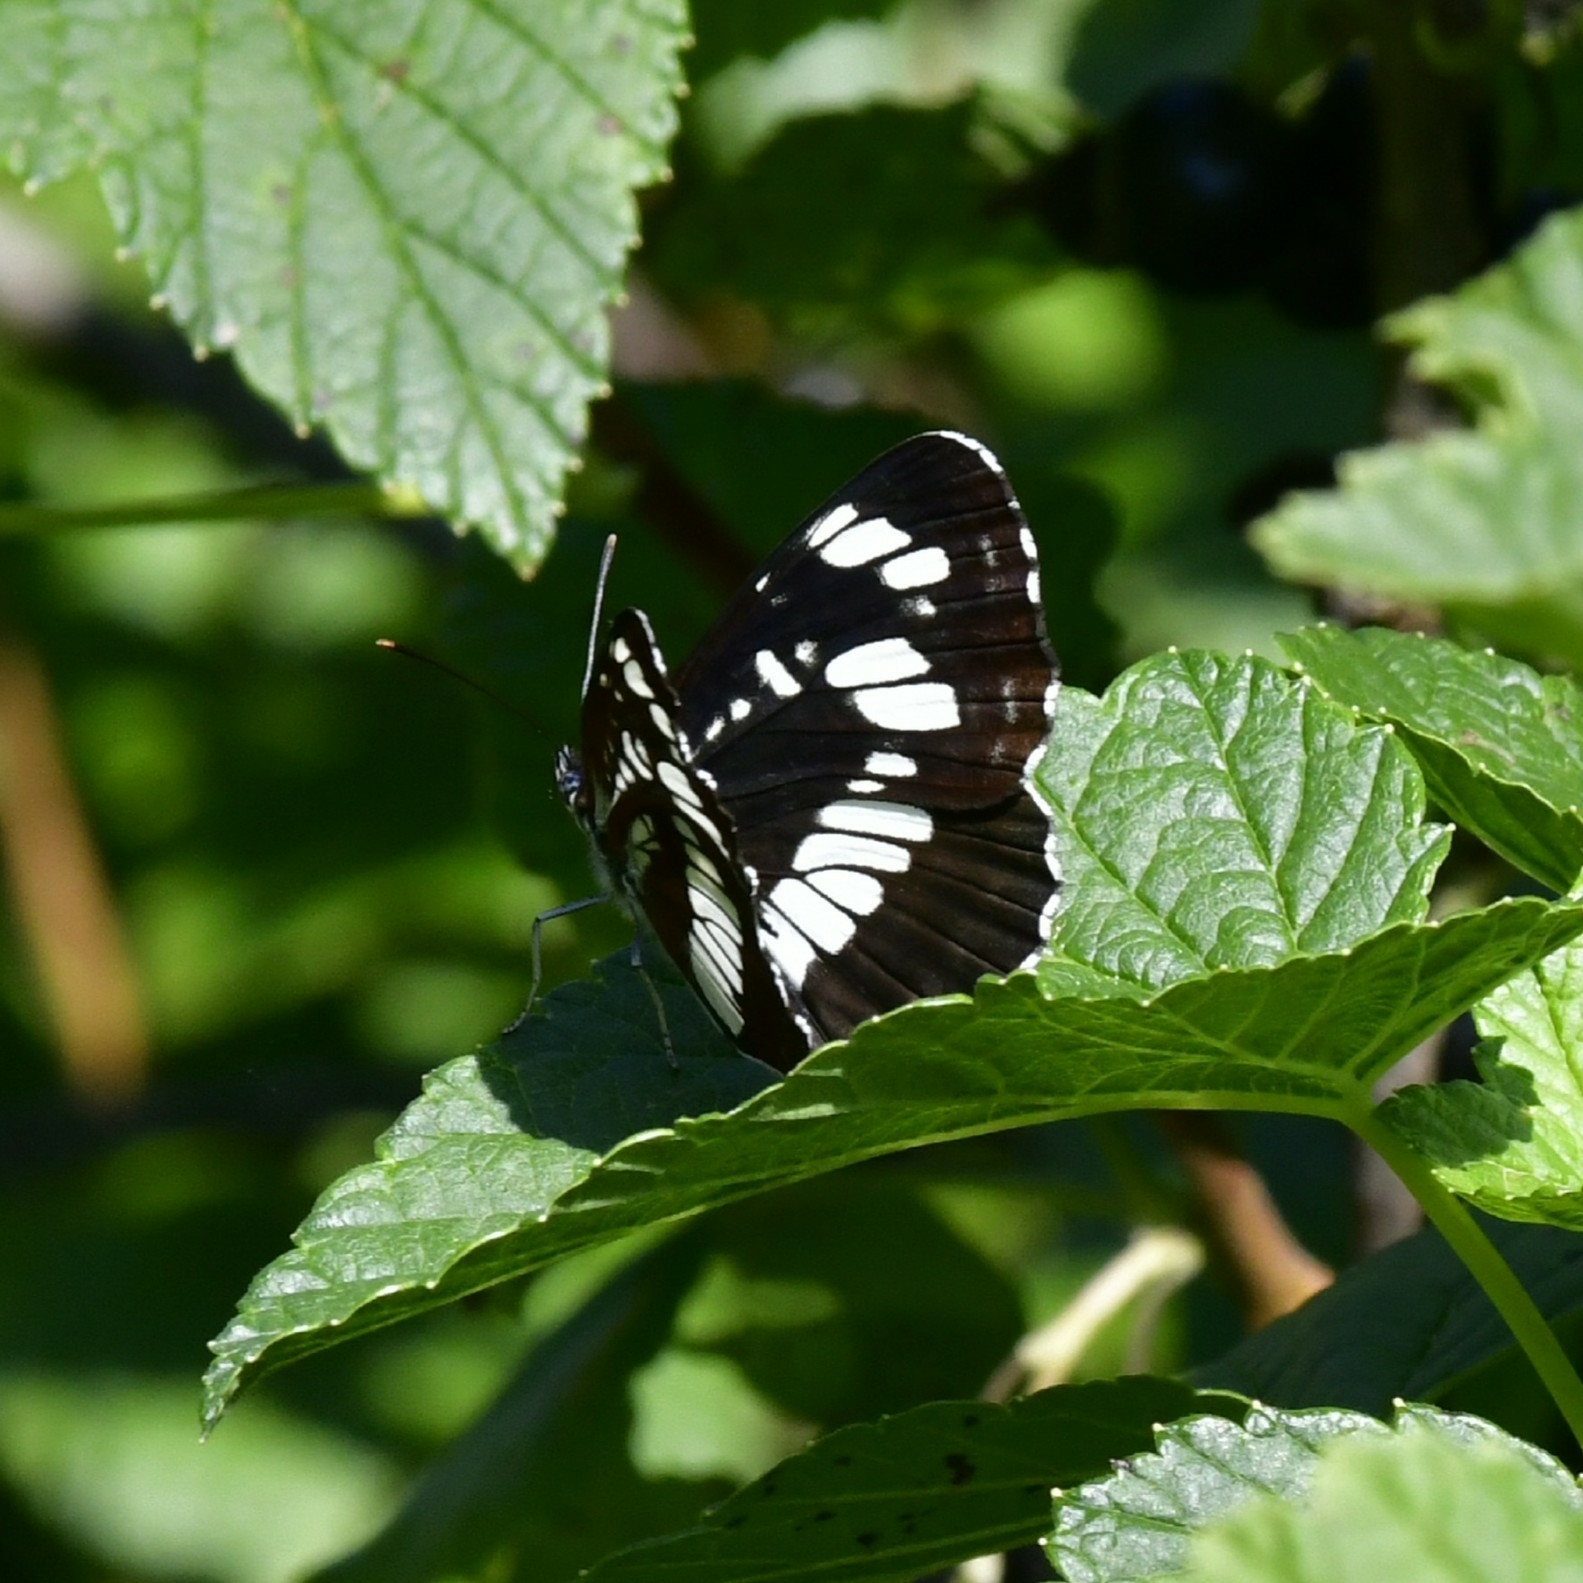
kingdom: Animalia
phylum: Arthropoda
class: Insecta
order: Lepidoptera
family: Nymphalidae
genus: Neptis
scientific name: Neptis rivularis
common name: Hungarian glider
